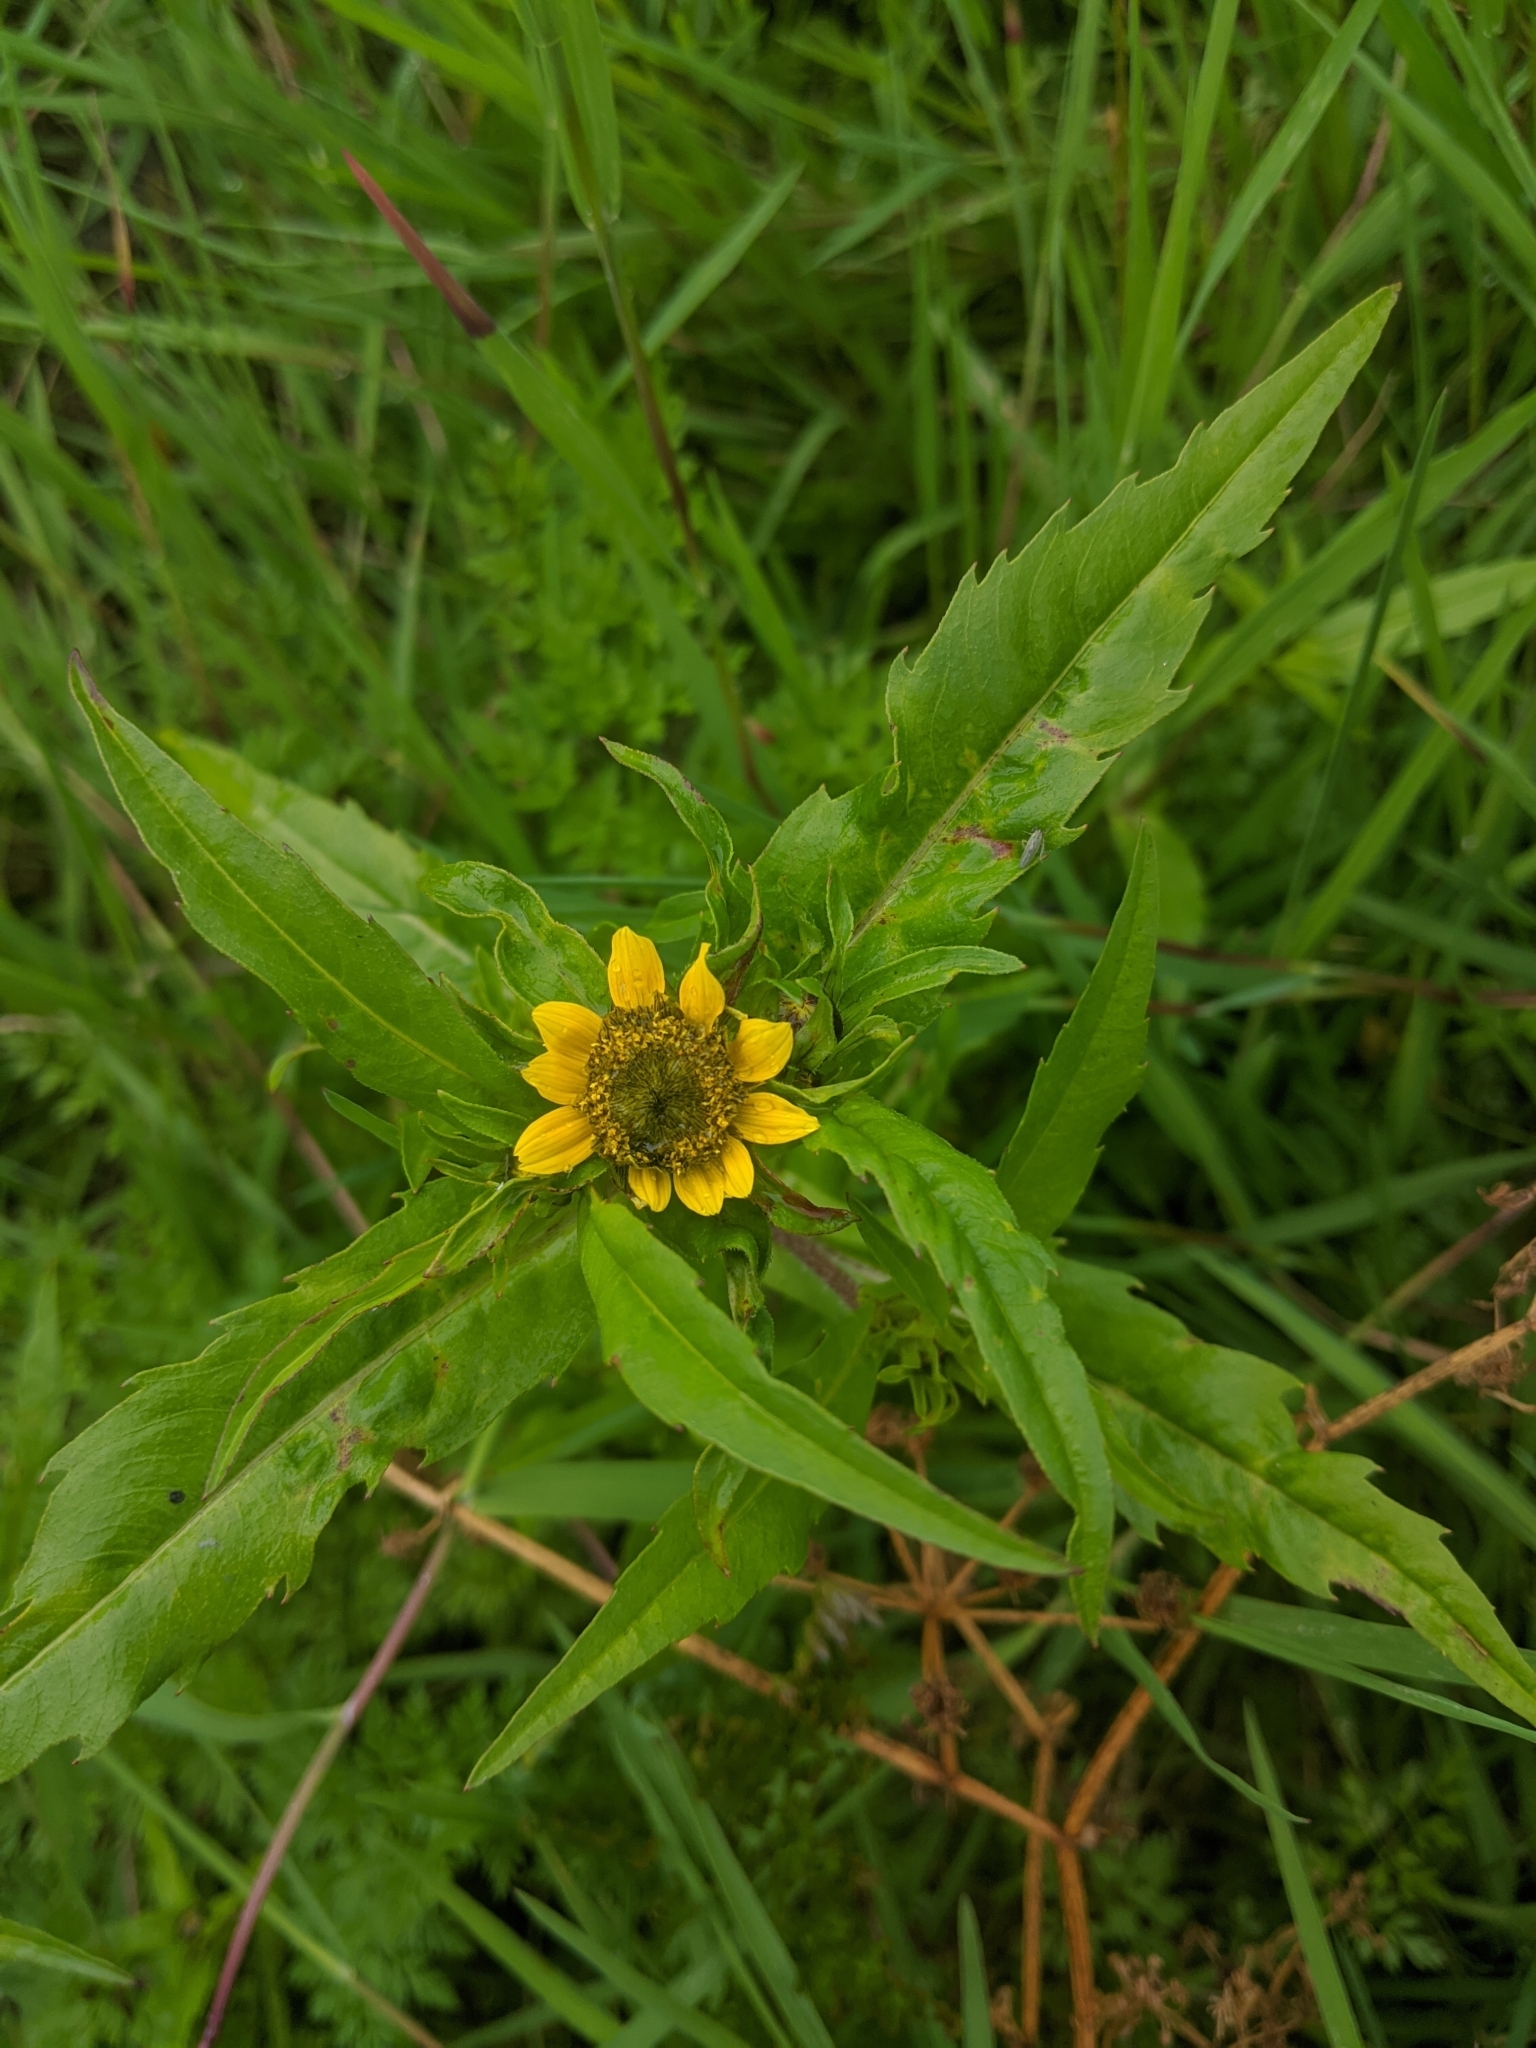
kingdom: Plantae
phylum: Tracheophyta
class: Magnoliopsida
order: Asterales
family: Asteraceae
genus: Bidens
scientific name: Bidens cernua
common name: Nodding bur-marigold
